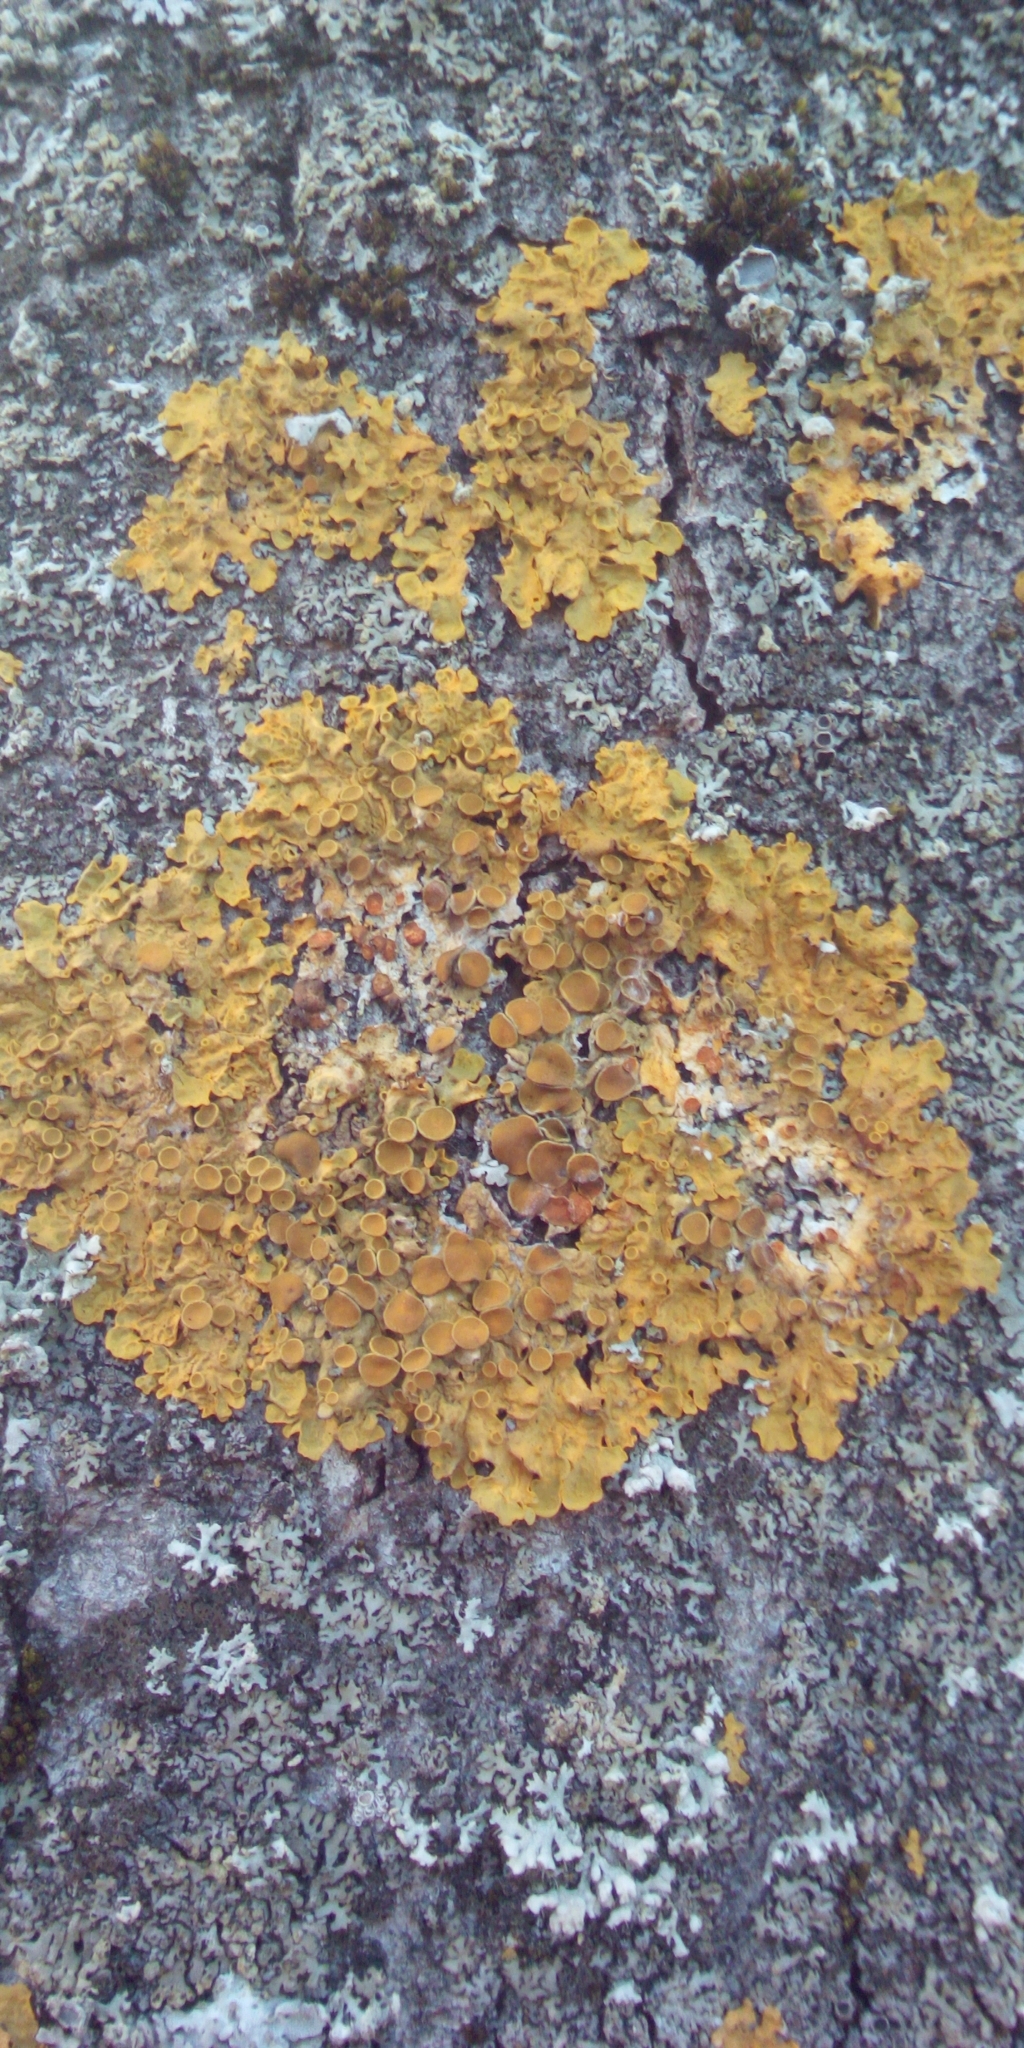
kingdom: Fungi
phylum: Ascomycota
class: Lecanoromycetes
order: Teloschistales
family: Teloschistaceae
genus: Xanthoria
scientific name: Xanthoria parietina
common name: Common orange lichen
